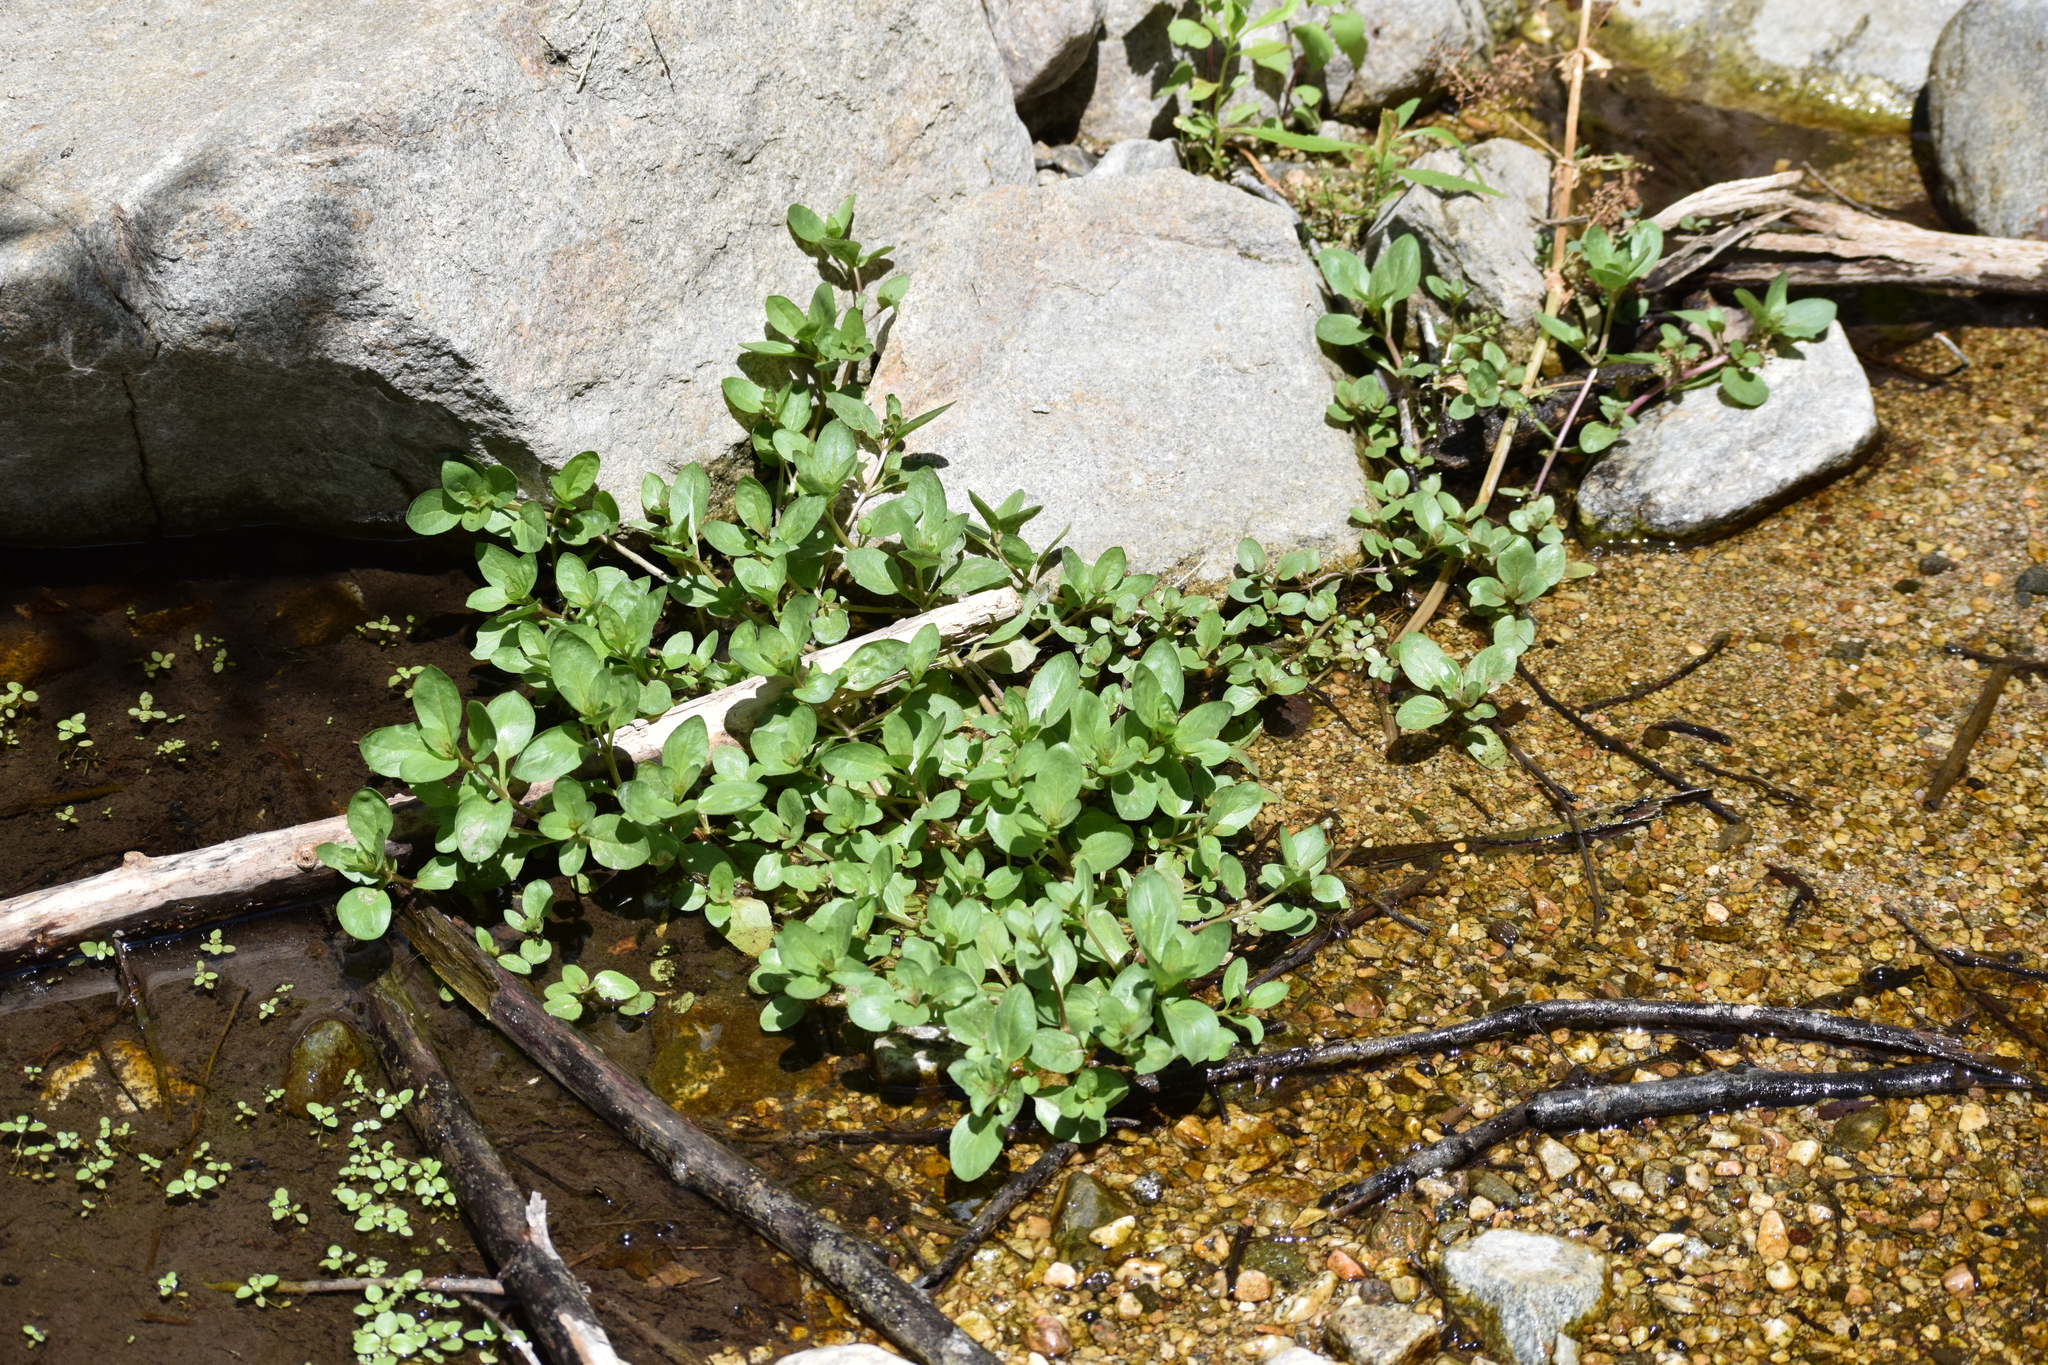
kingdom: Plantae
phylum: Tracheophyta
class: Magnoliopsida
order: Brassicales
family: Brassicaceae
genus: Nasturtium
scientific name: Nasturtium officinale
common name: Watercress
